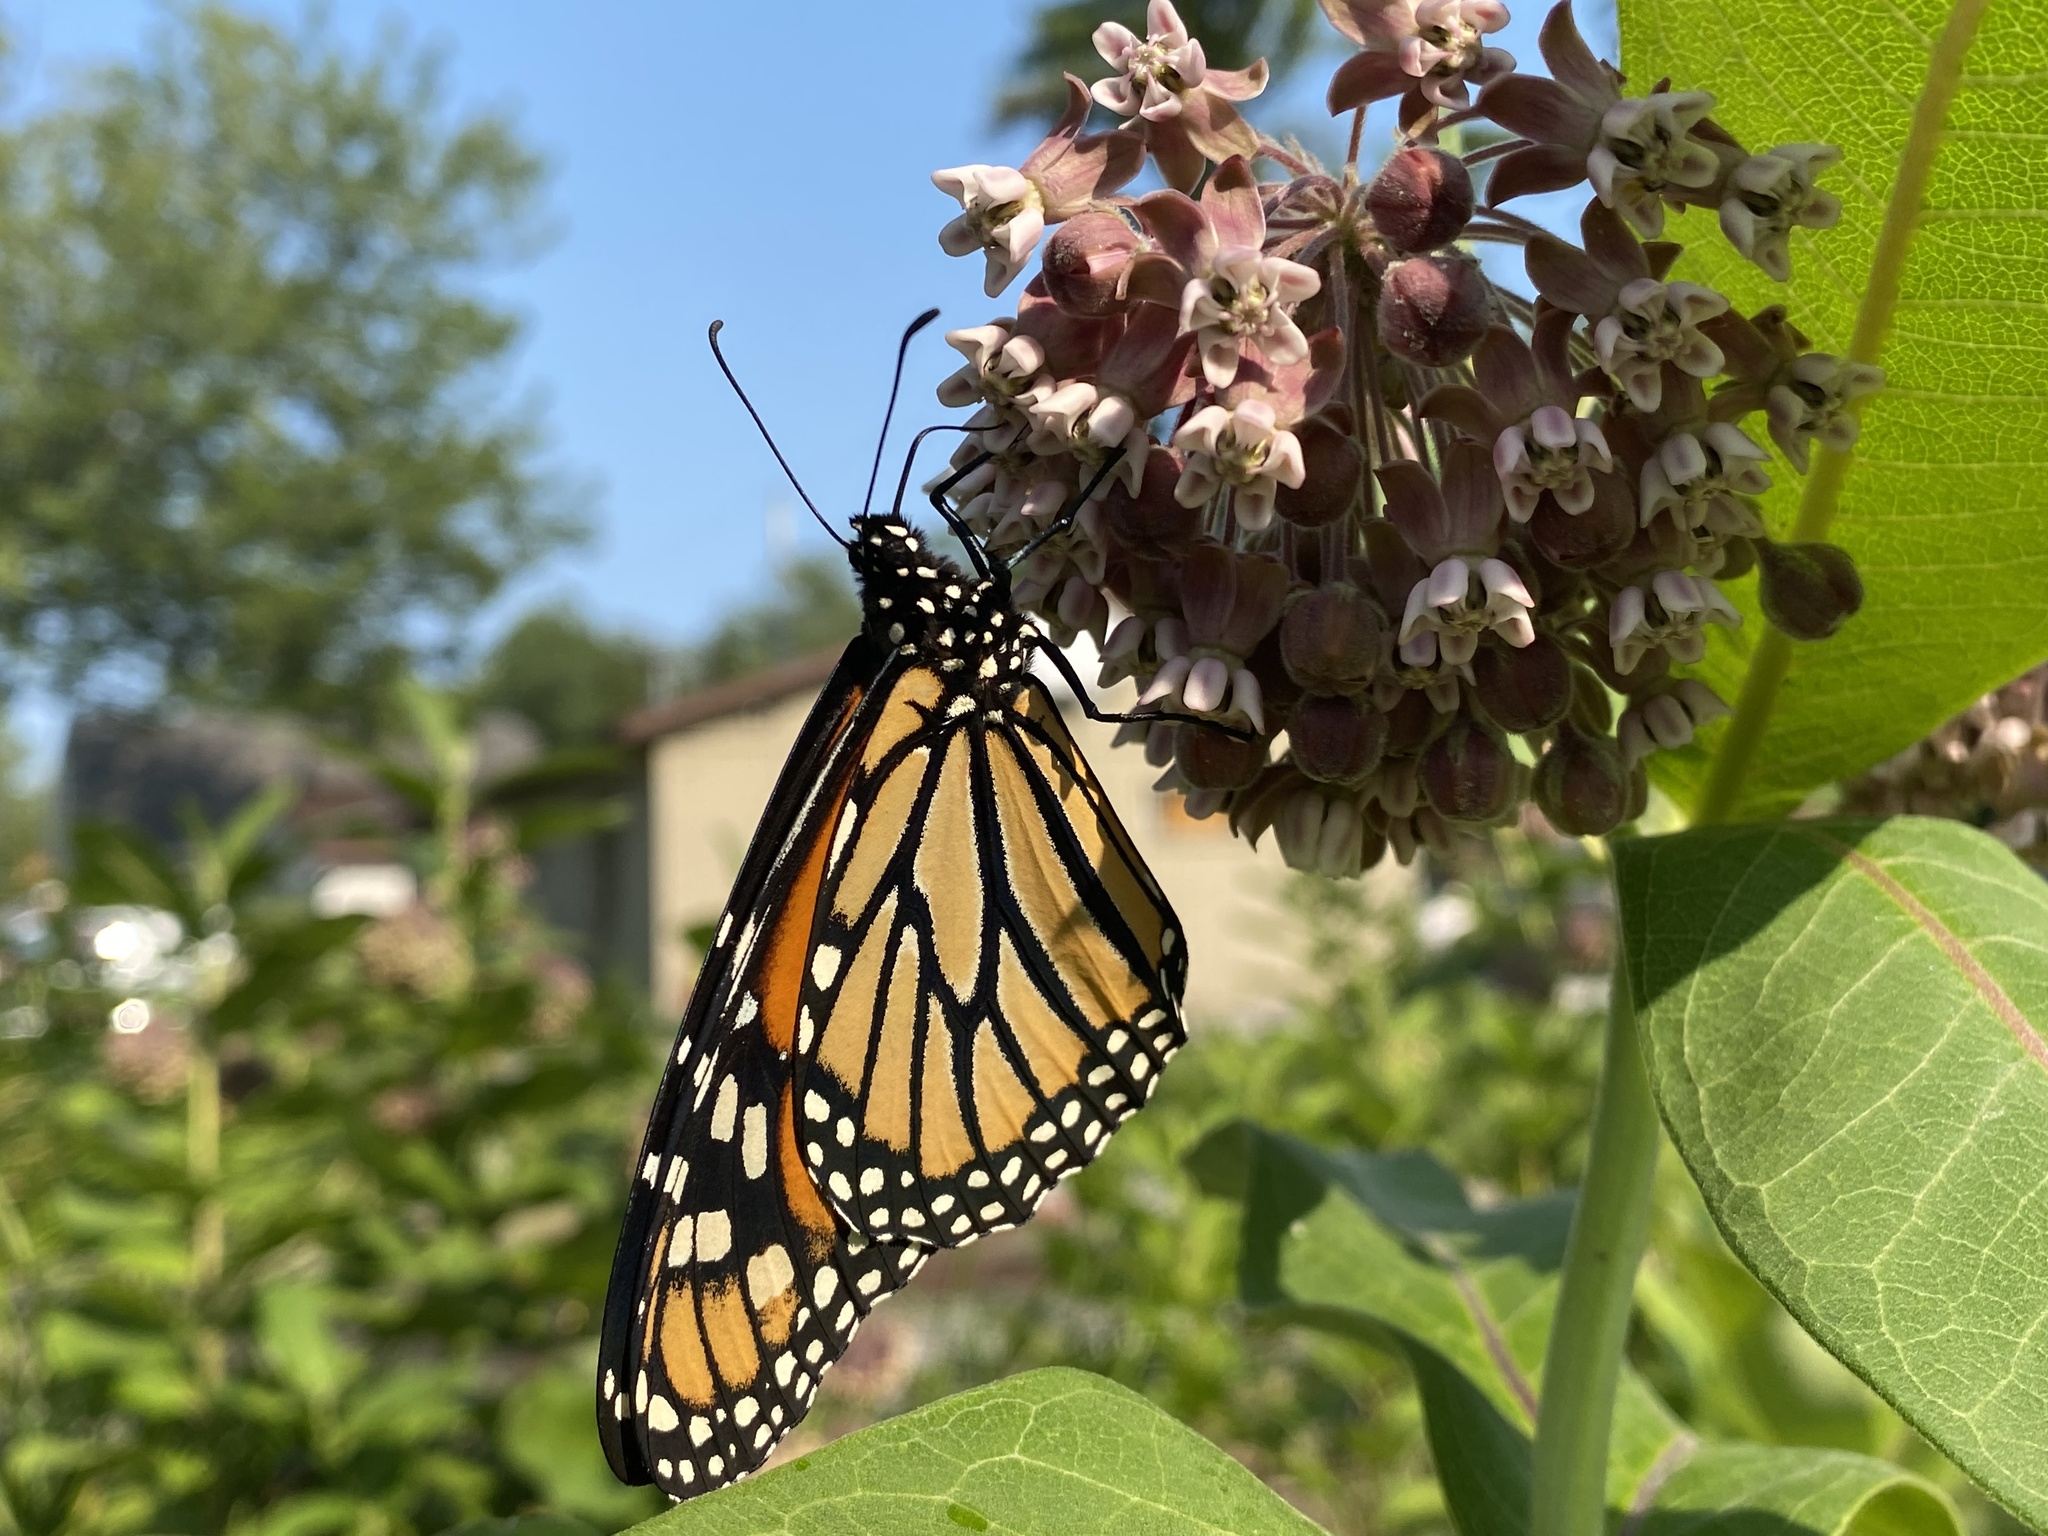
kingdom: Animalia
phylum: Arthropoda
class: Insecta
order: Lepidoptera
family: Nymphalidae
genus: Danaus
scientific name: Danaus plexippus
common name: Monarch
